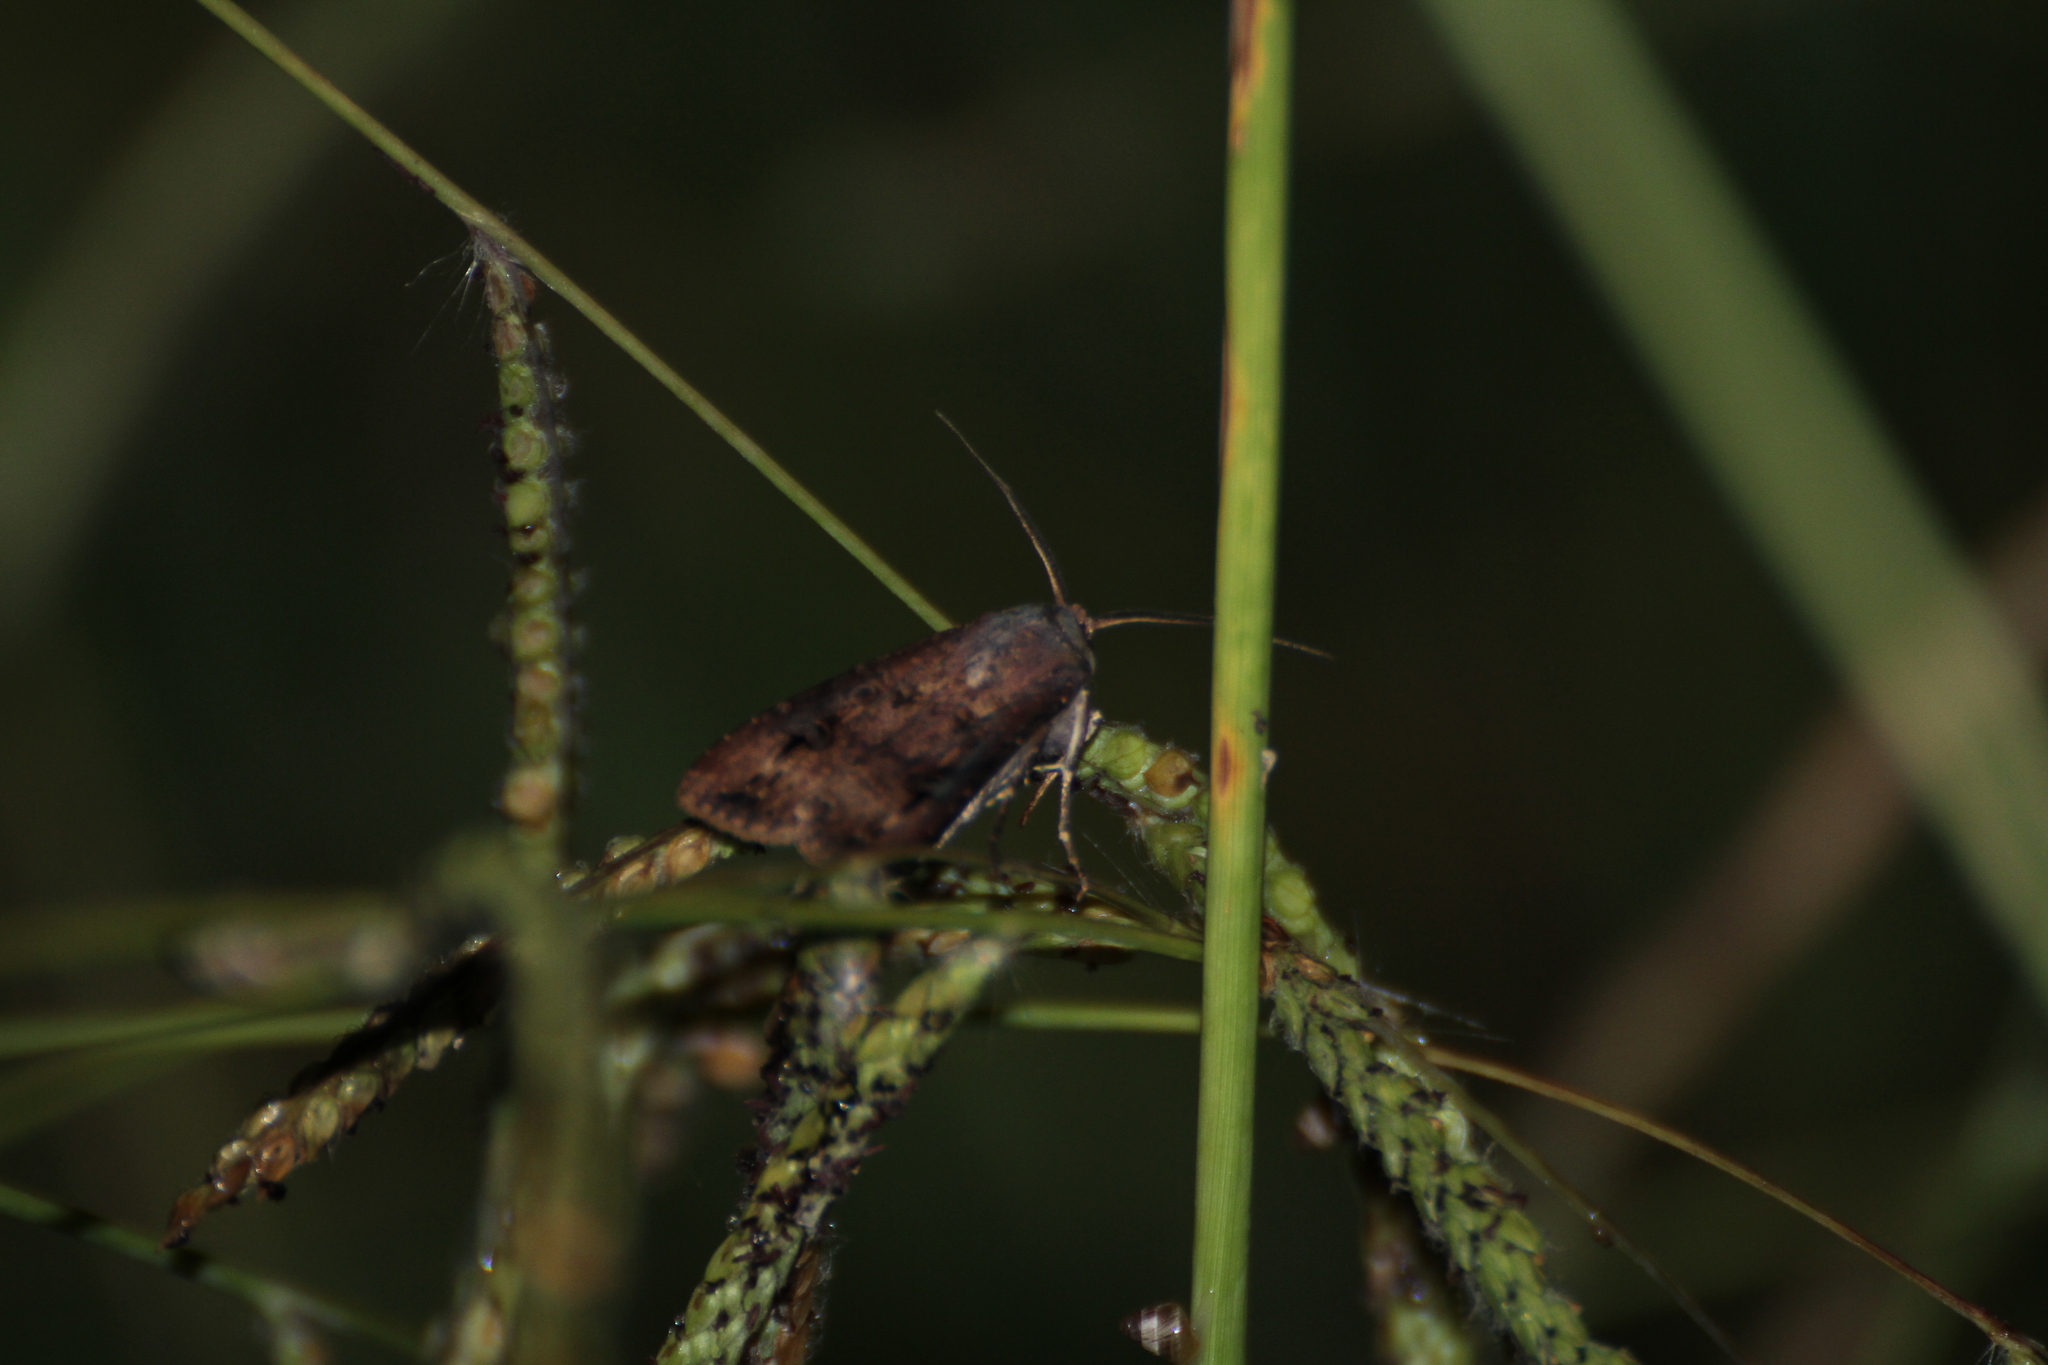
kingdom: Animalia
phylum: Arthropoda
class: Insecta
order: Lepidoptera
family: Noctuidae
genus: Agrotis
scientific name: Agrotis ipsilon
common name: Dark sword-grass
